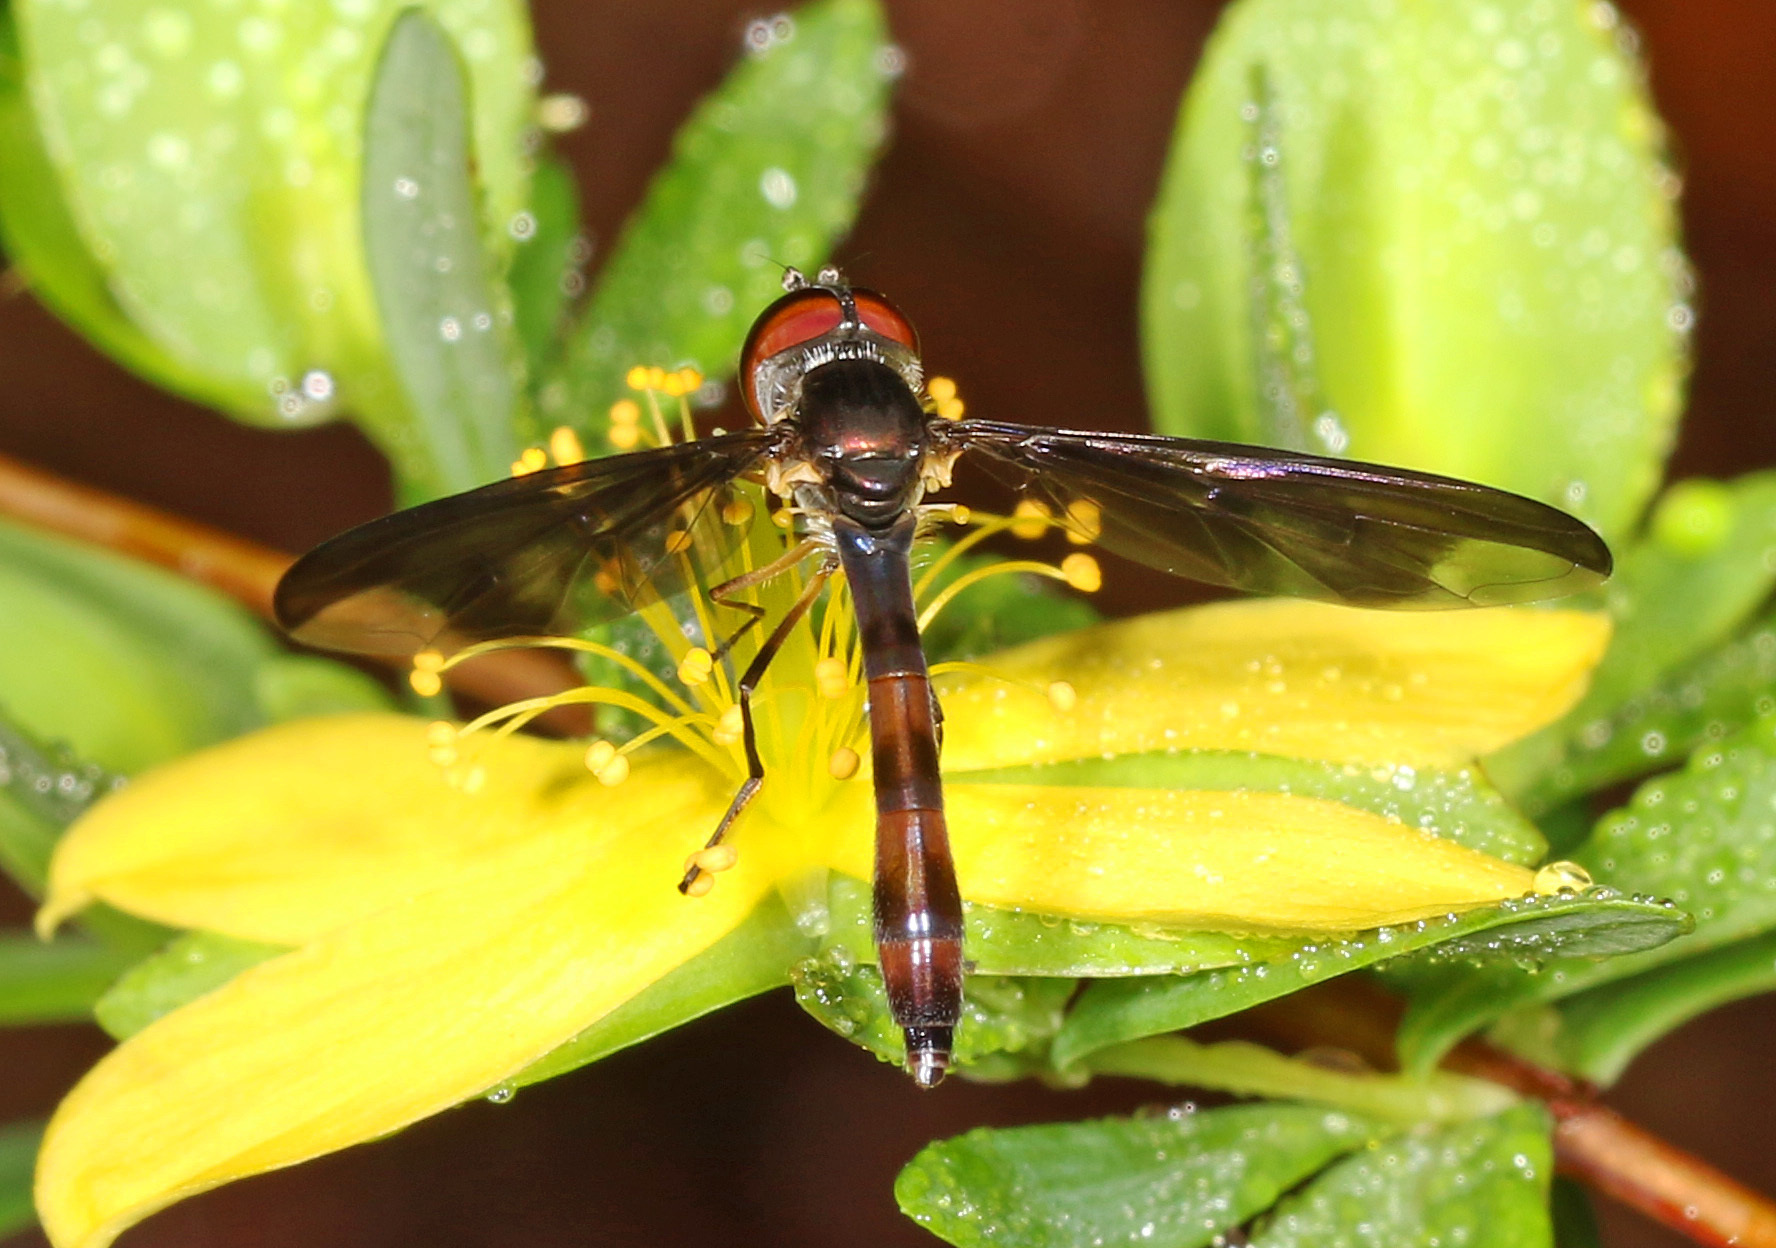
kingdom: Animalia
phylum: Arthropoda
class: Insecta
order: Diptera
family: Syrphidae
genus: Ocyptamus
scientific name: Ocyptamus fuscipennis
